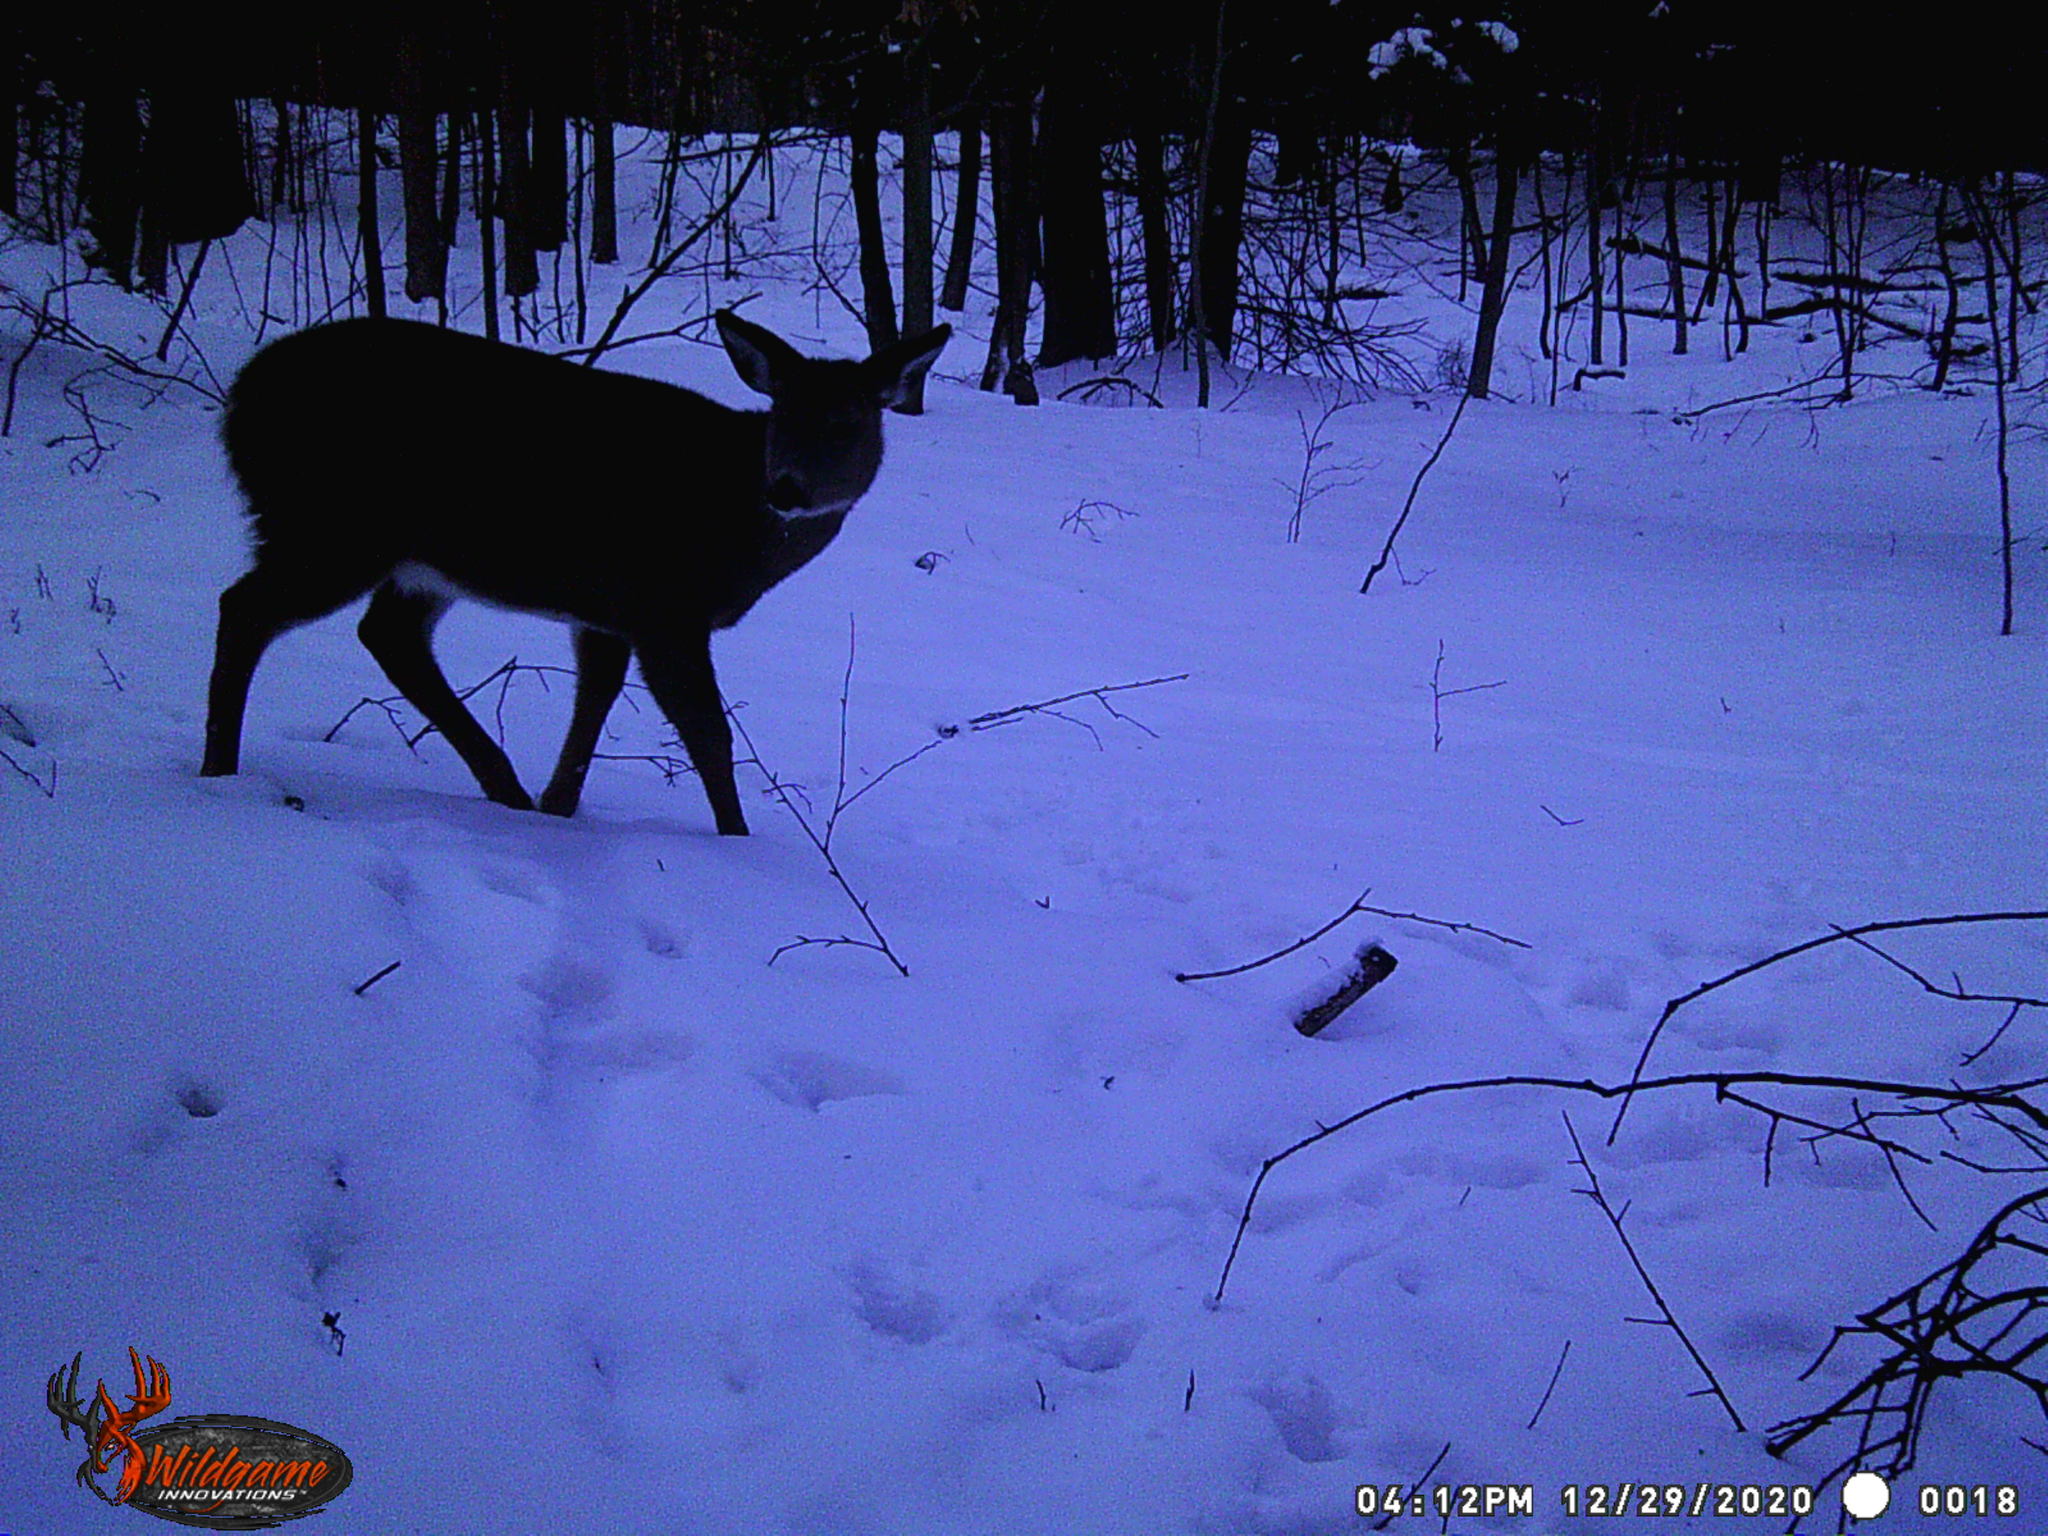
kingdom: Animalia
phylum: Chordata
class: Mammalia
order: Artiodactyla
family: Cervidae
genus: Odocoileus
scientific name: Odocoileus virginianus
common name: White-tailed deer
